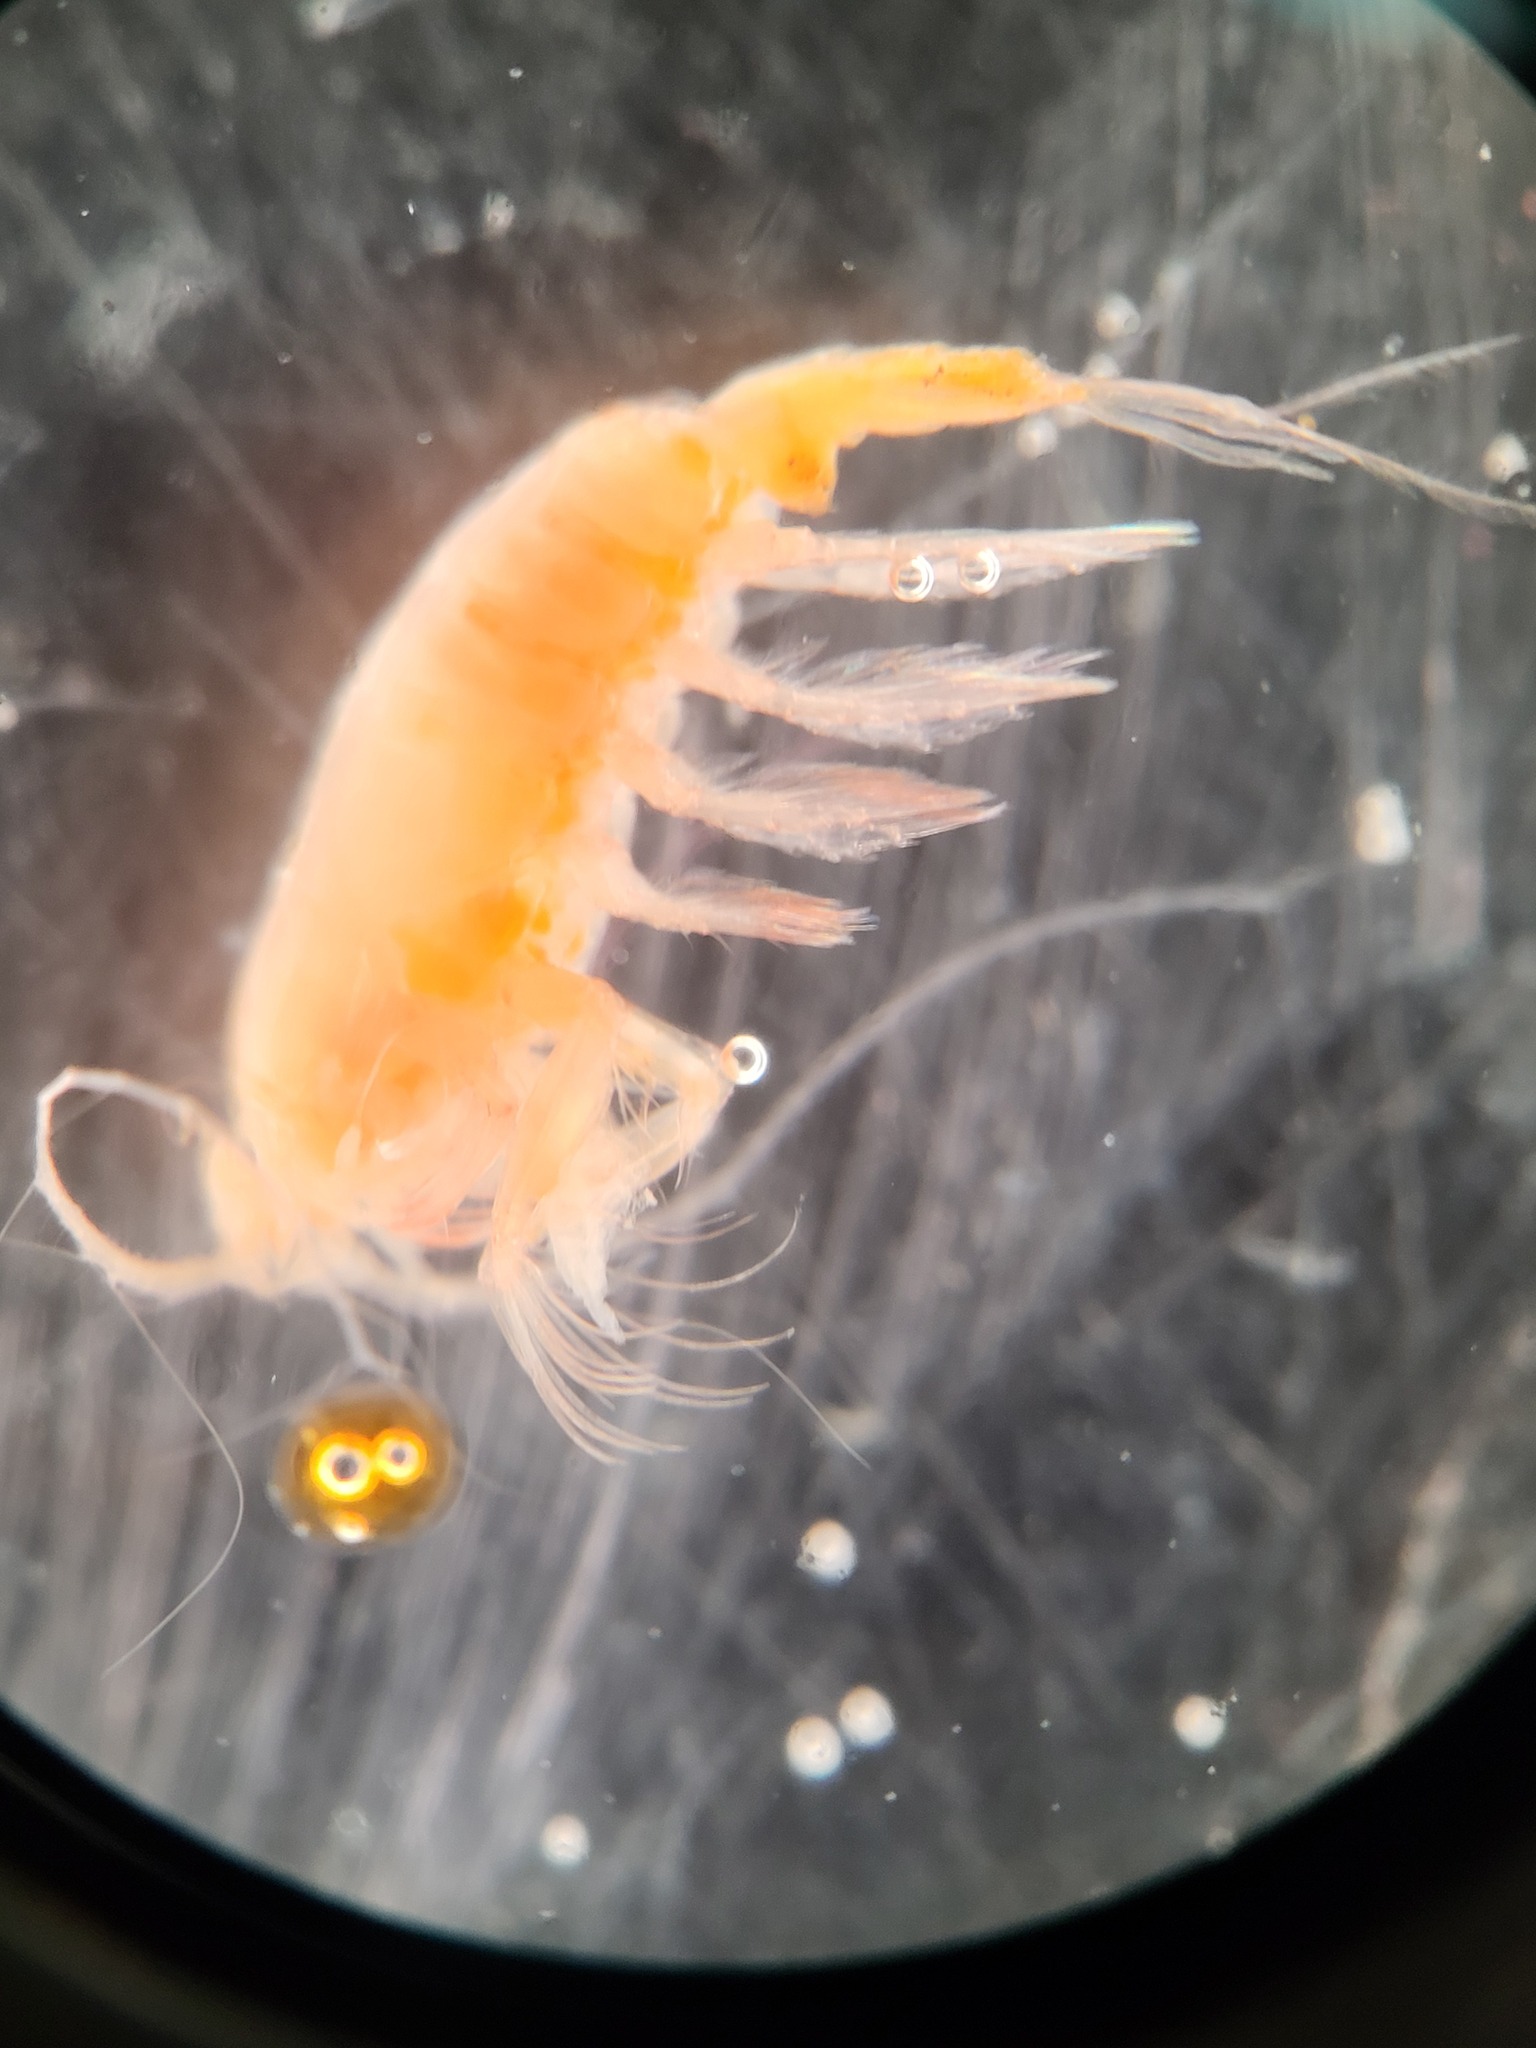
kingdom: Animalia
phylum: Arthropoda
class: Copepoda
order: Calanoida
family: Euchaetidae
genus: Paraeuchaeta
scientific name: Paraeuchaeta glacialis
